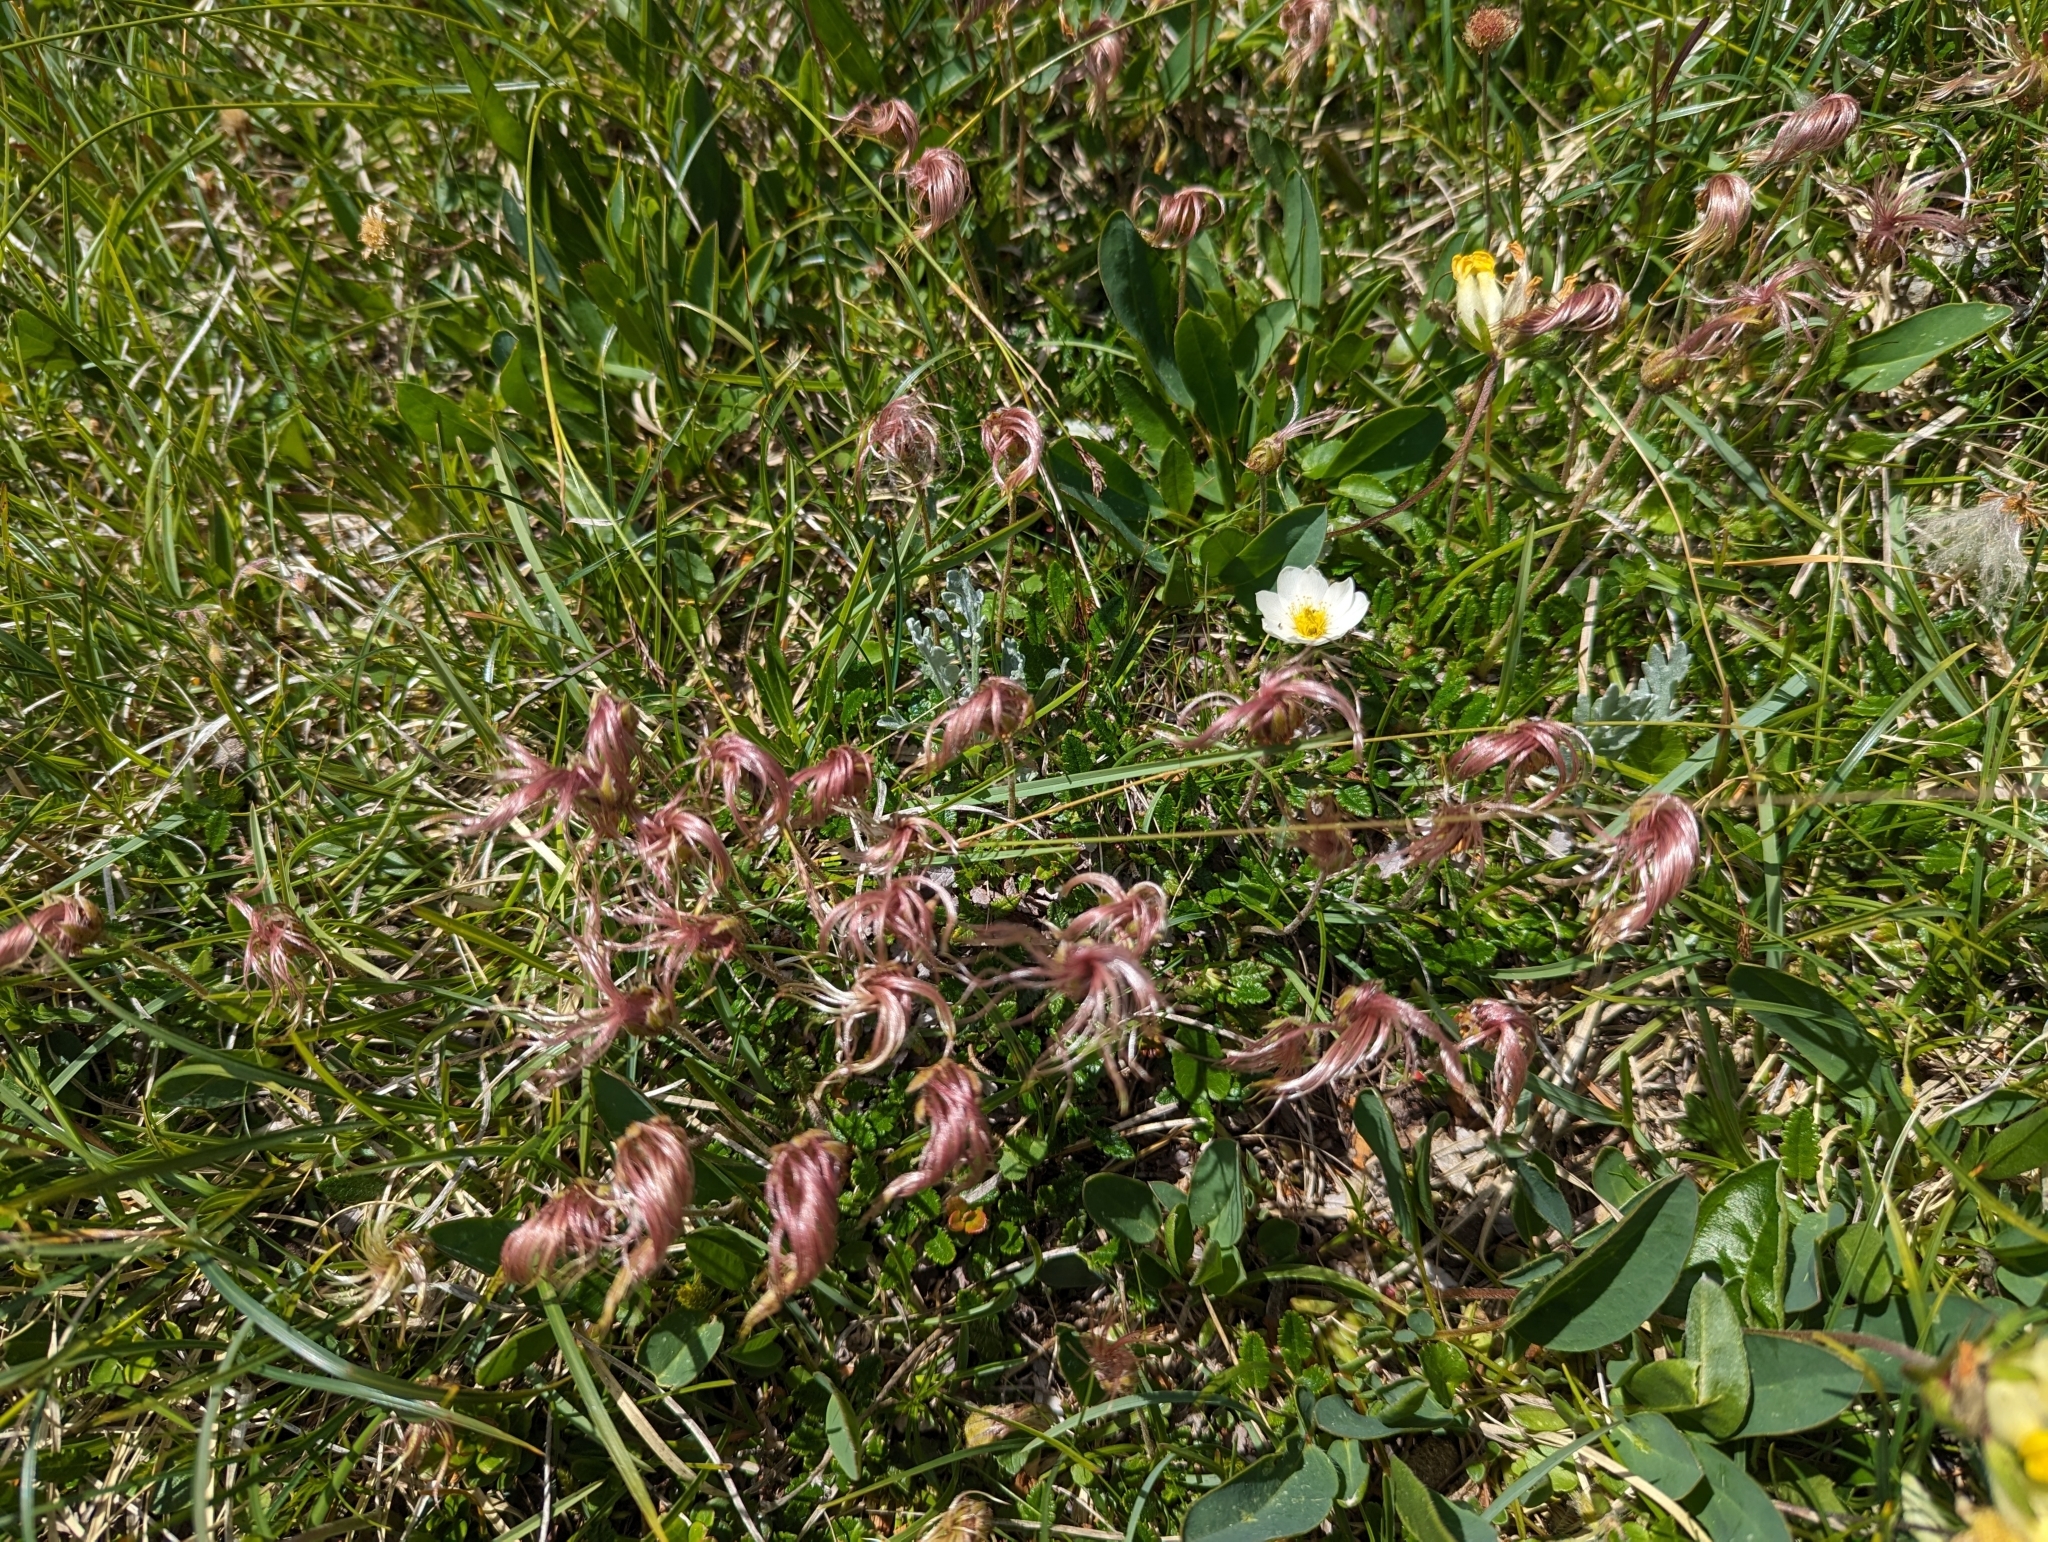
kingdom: Plantae
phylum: Tracheophyta
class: Magnoliopsida
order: Rosales
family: Rosaceae
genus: Dryas
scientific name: Dryas octopetala
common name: Eight-petal mountain-avens
